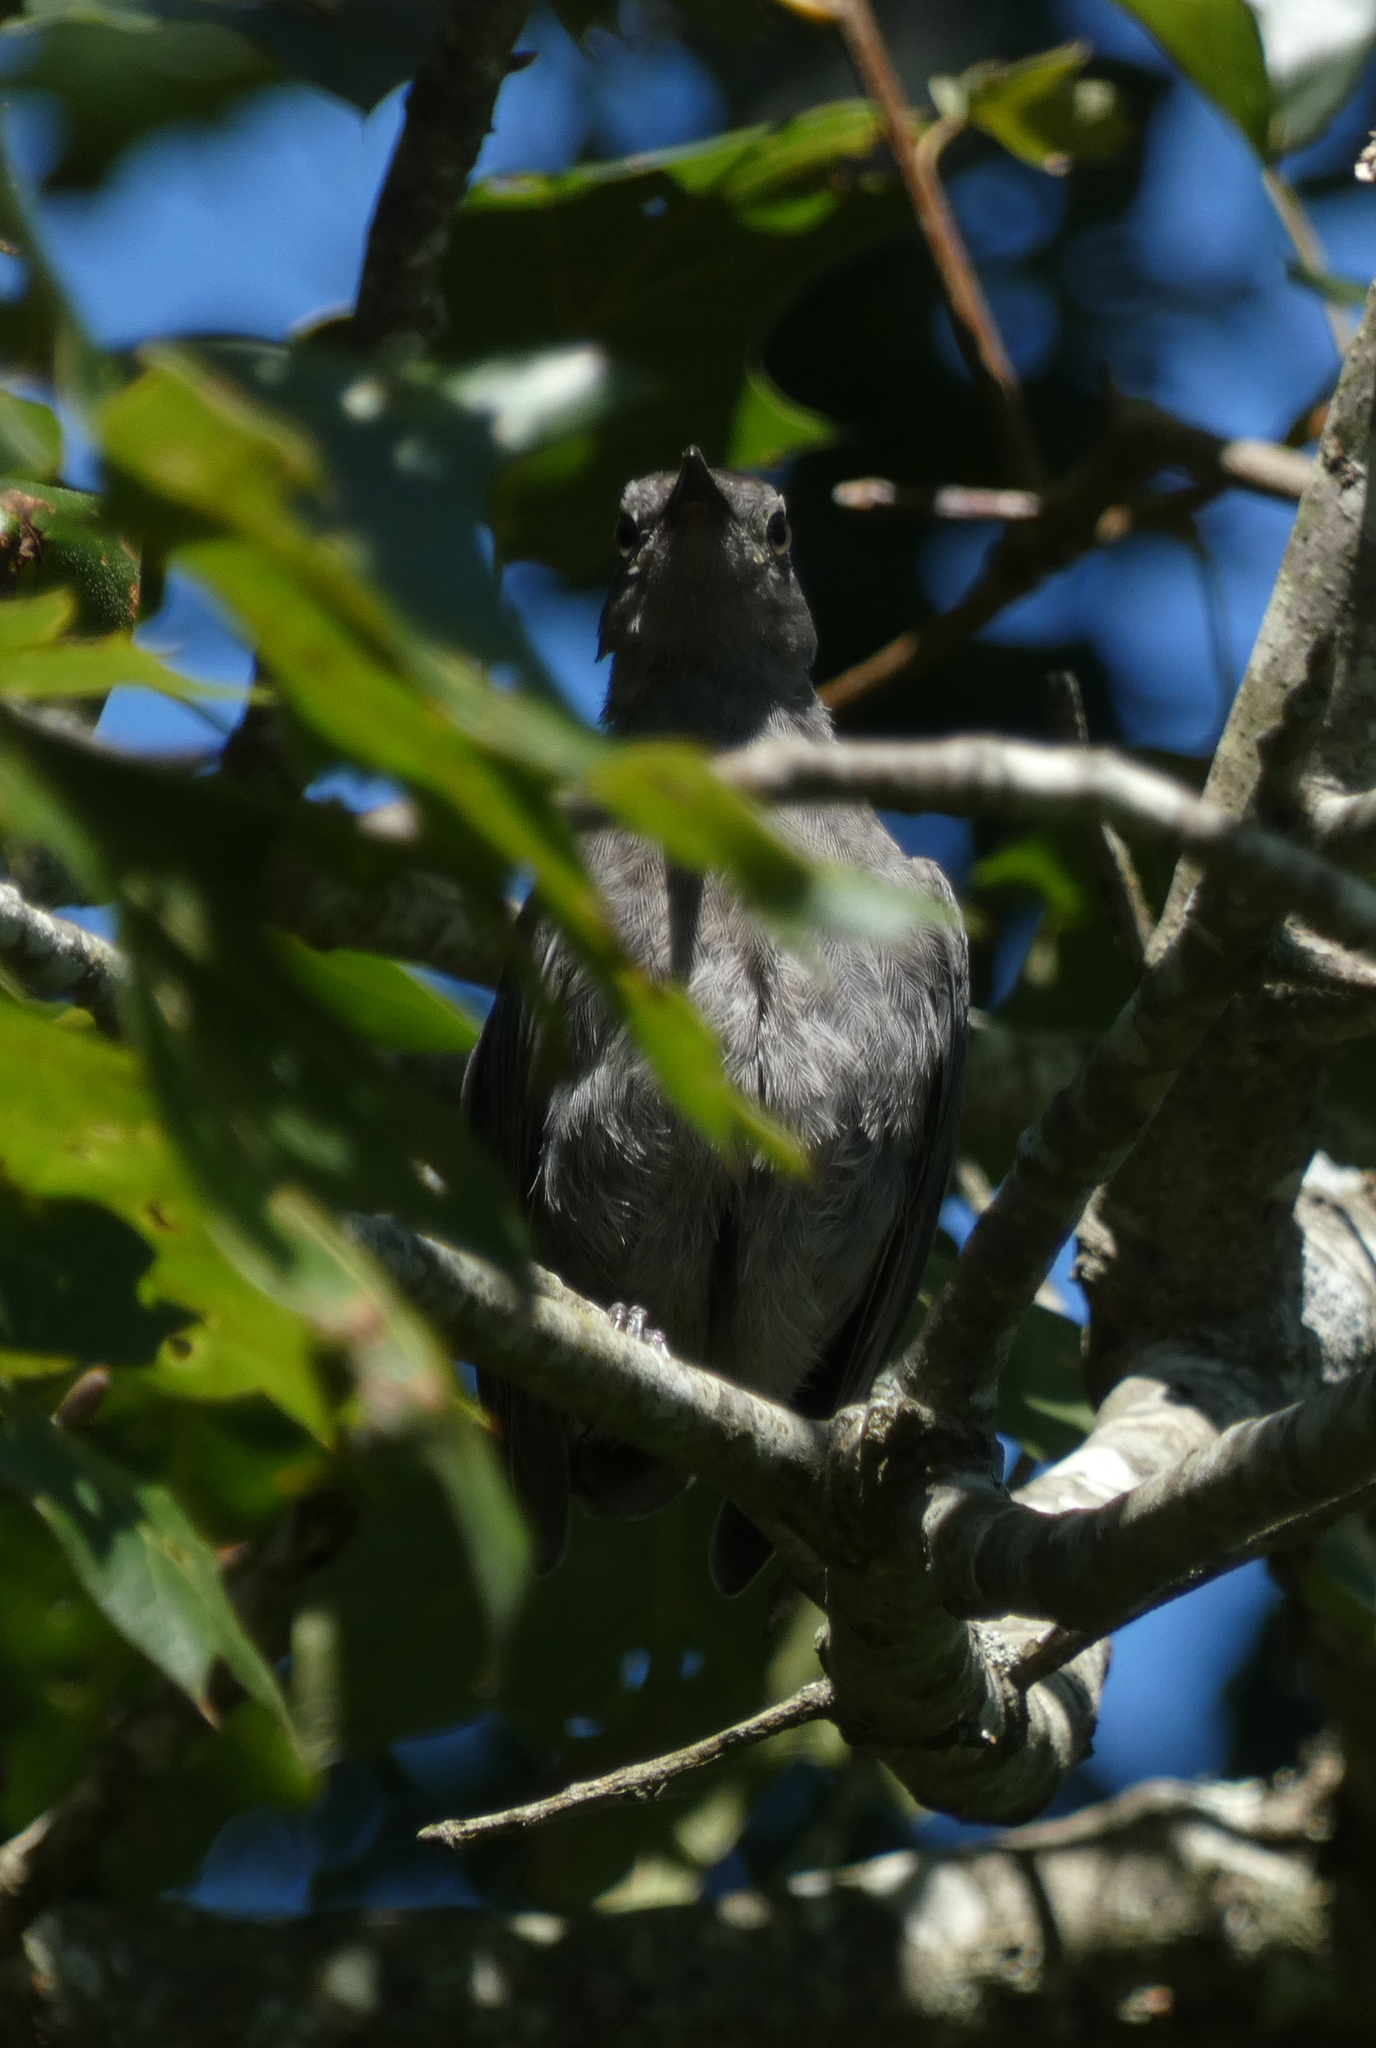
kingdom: Animalia
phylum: Chordata
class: Aves
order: Passeriformes
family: Mimidae
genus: Dumetella
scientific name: Dumetella carolinensis
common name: Gray catbird
